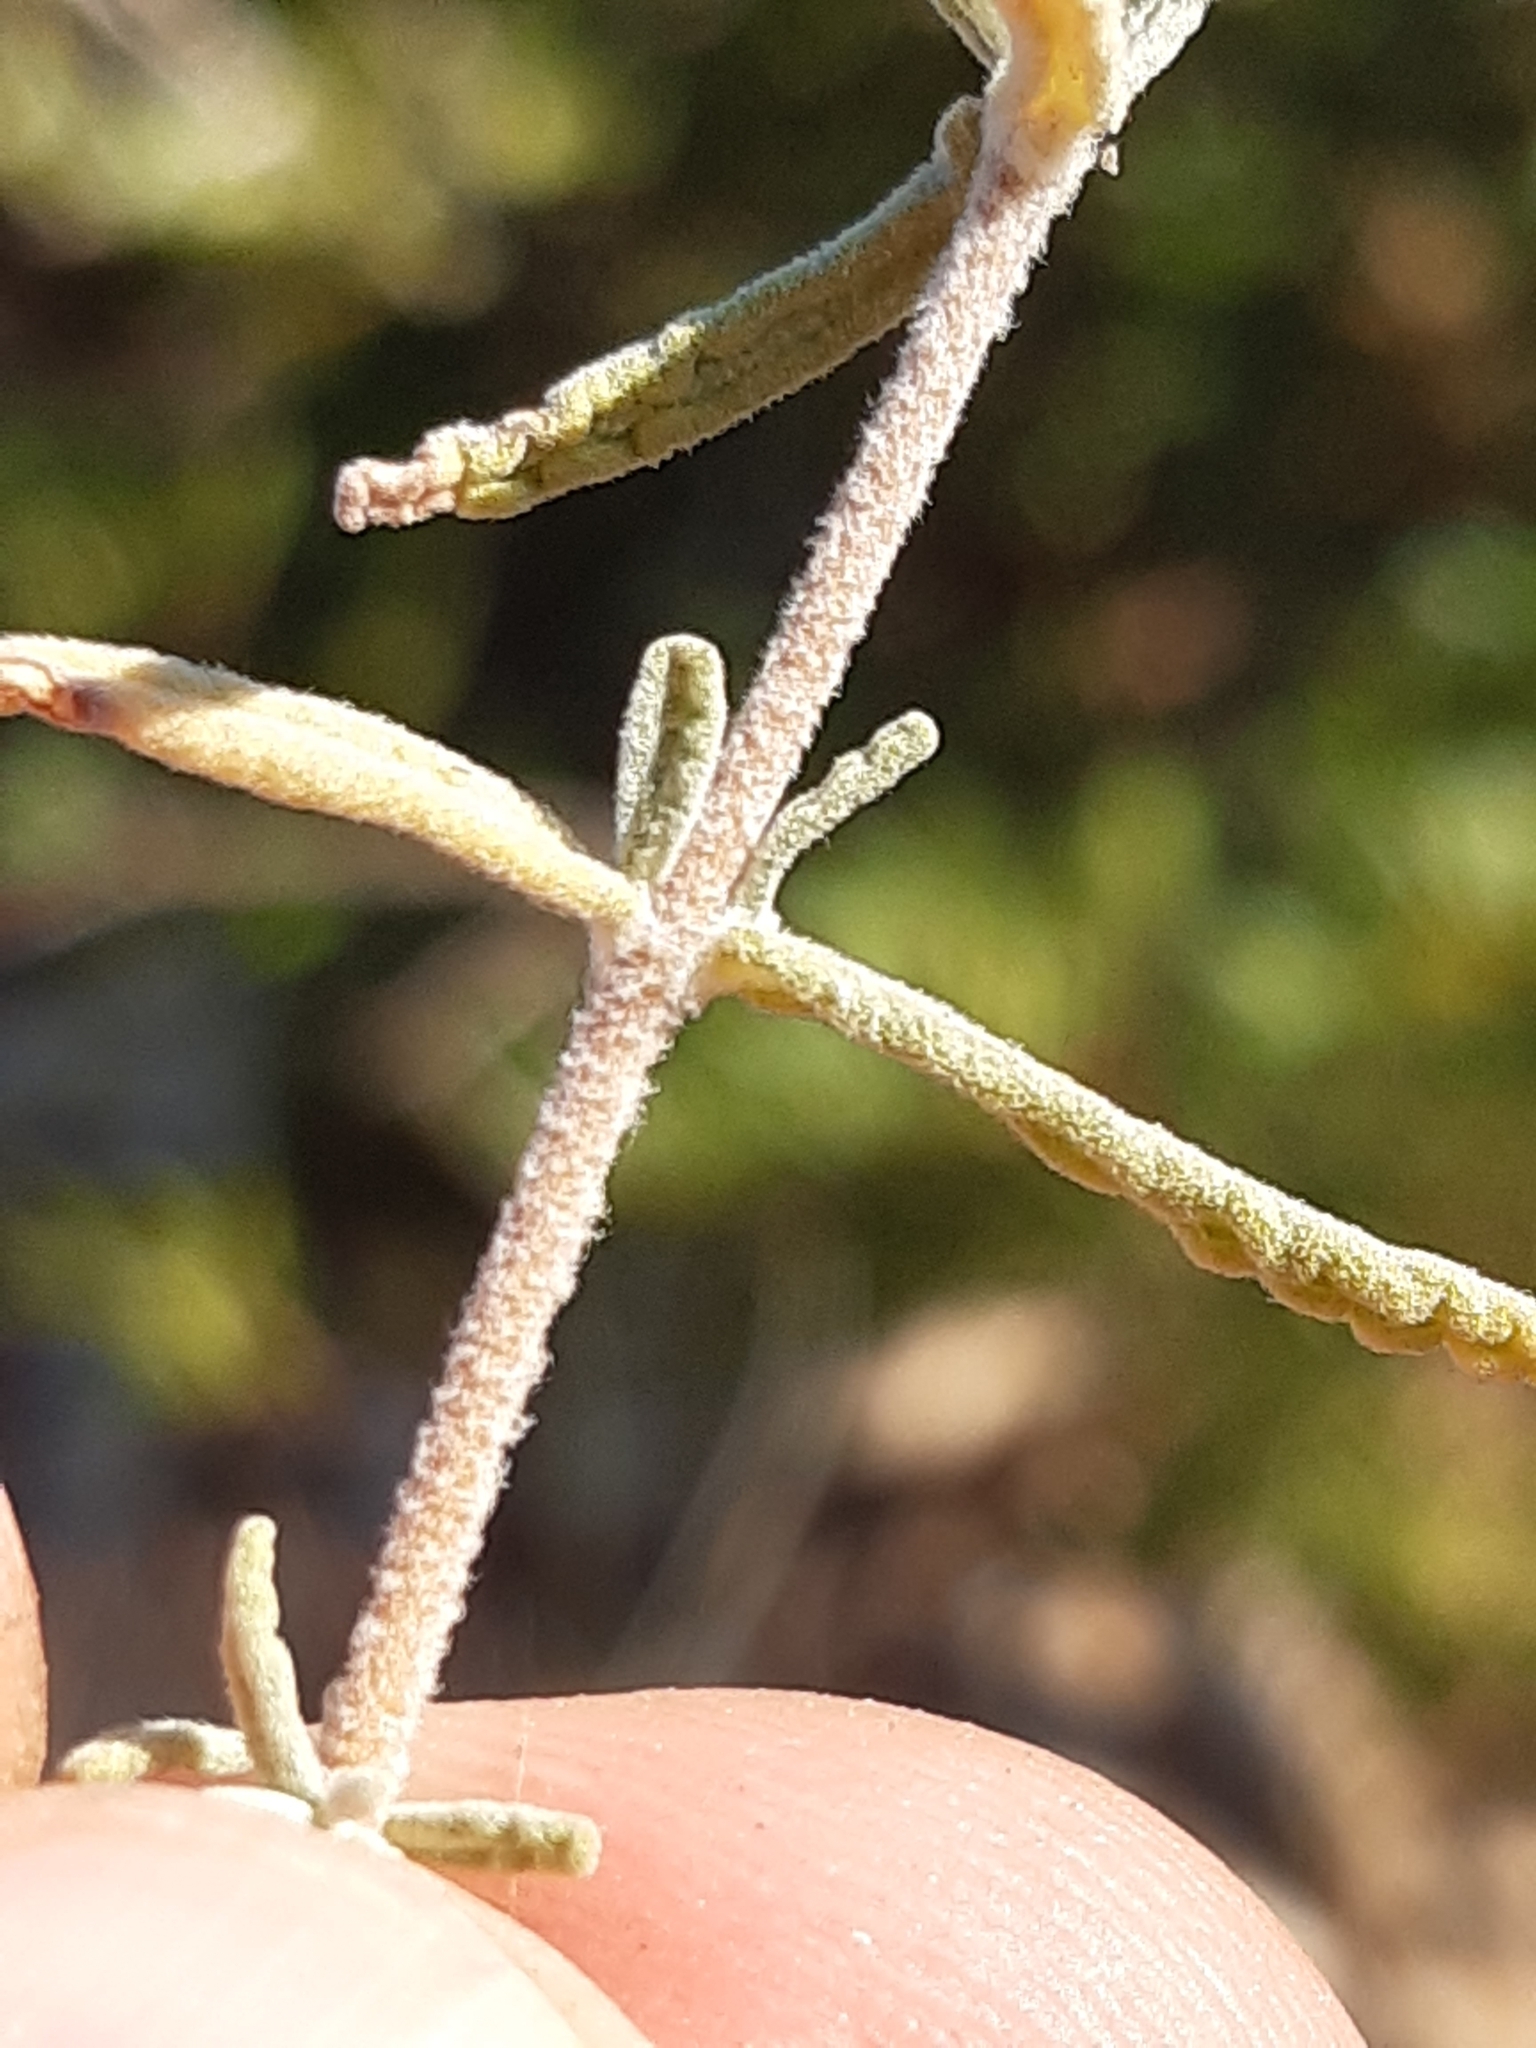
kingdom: Plantae
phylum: Tracheophyta
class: Magnoliopsida
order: Lamiales
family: Lamiaceae
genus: Teucrium
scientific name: Teucrium capitatum
